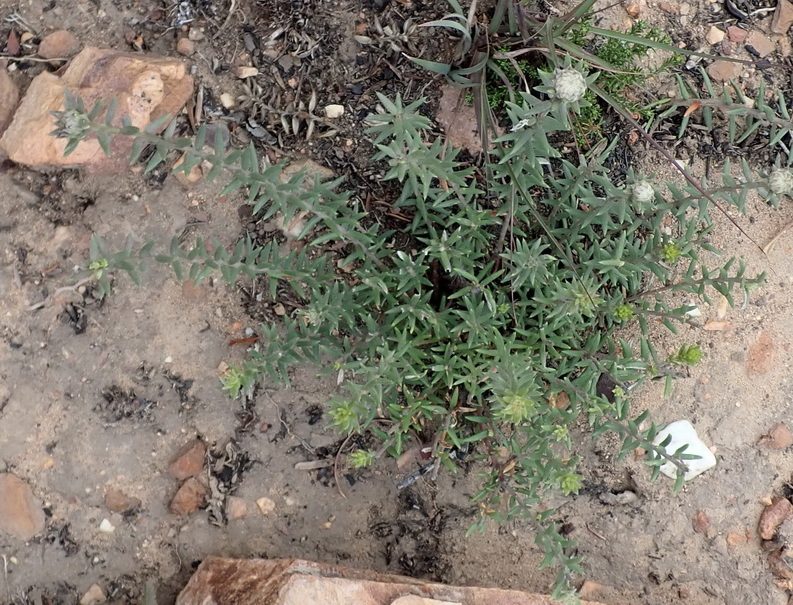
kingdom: Plantae
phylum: Tracheophyta
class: Magnoliopsida
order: Rosales
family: Rhamnaceae
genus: Phylica
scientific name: Phylica propinqua
